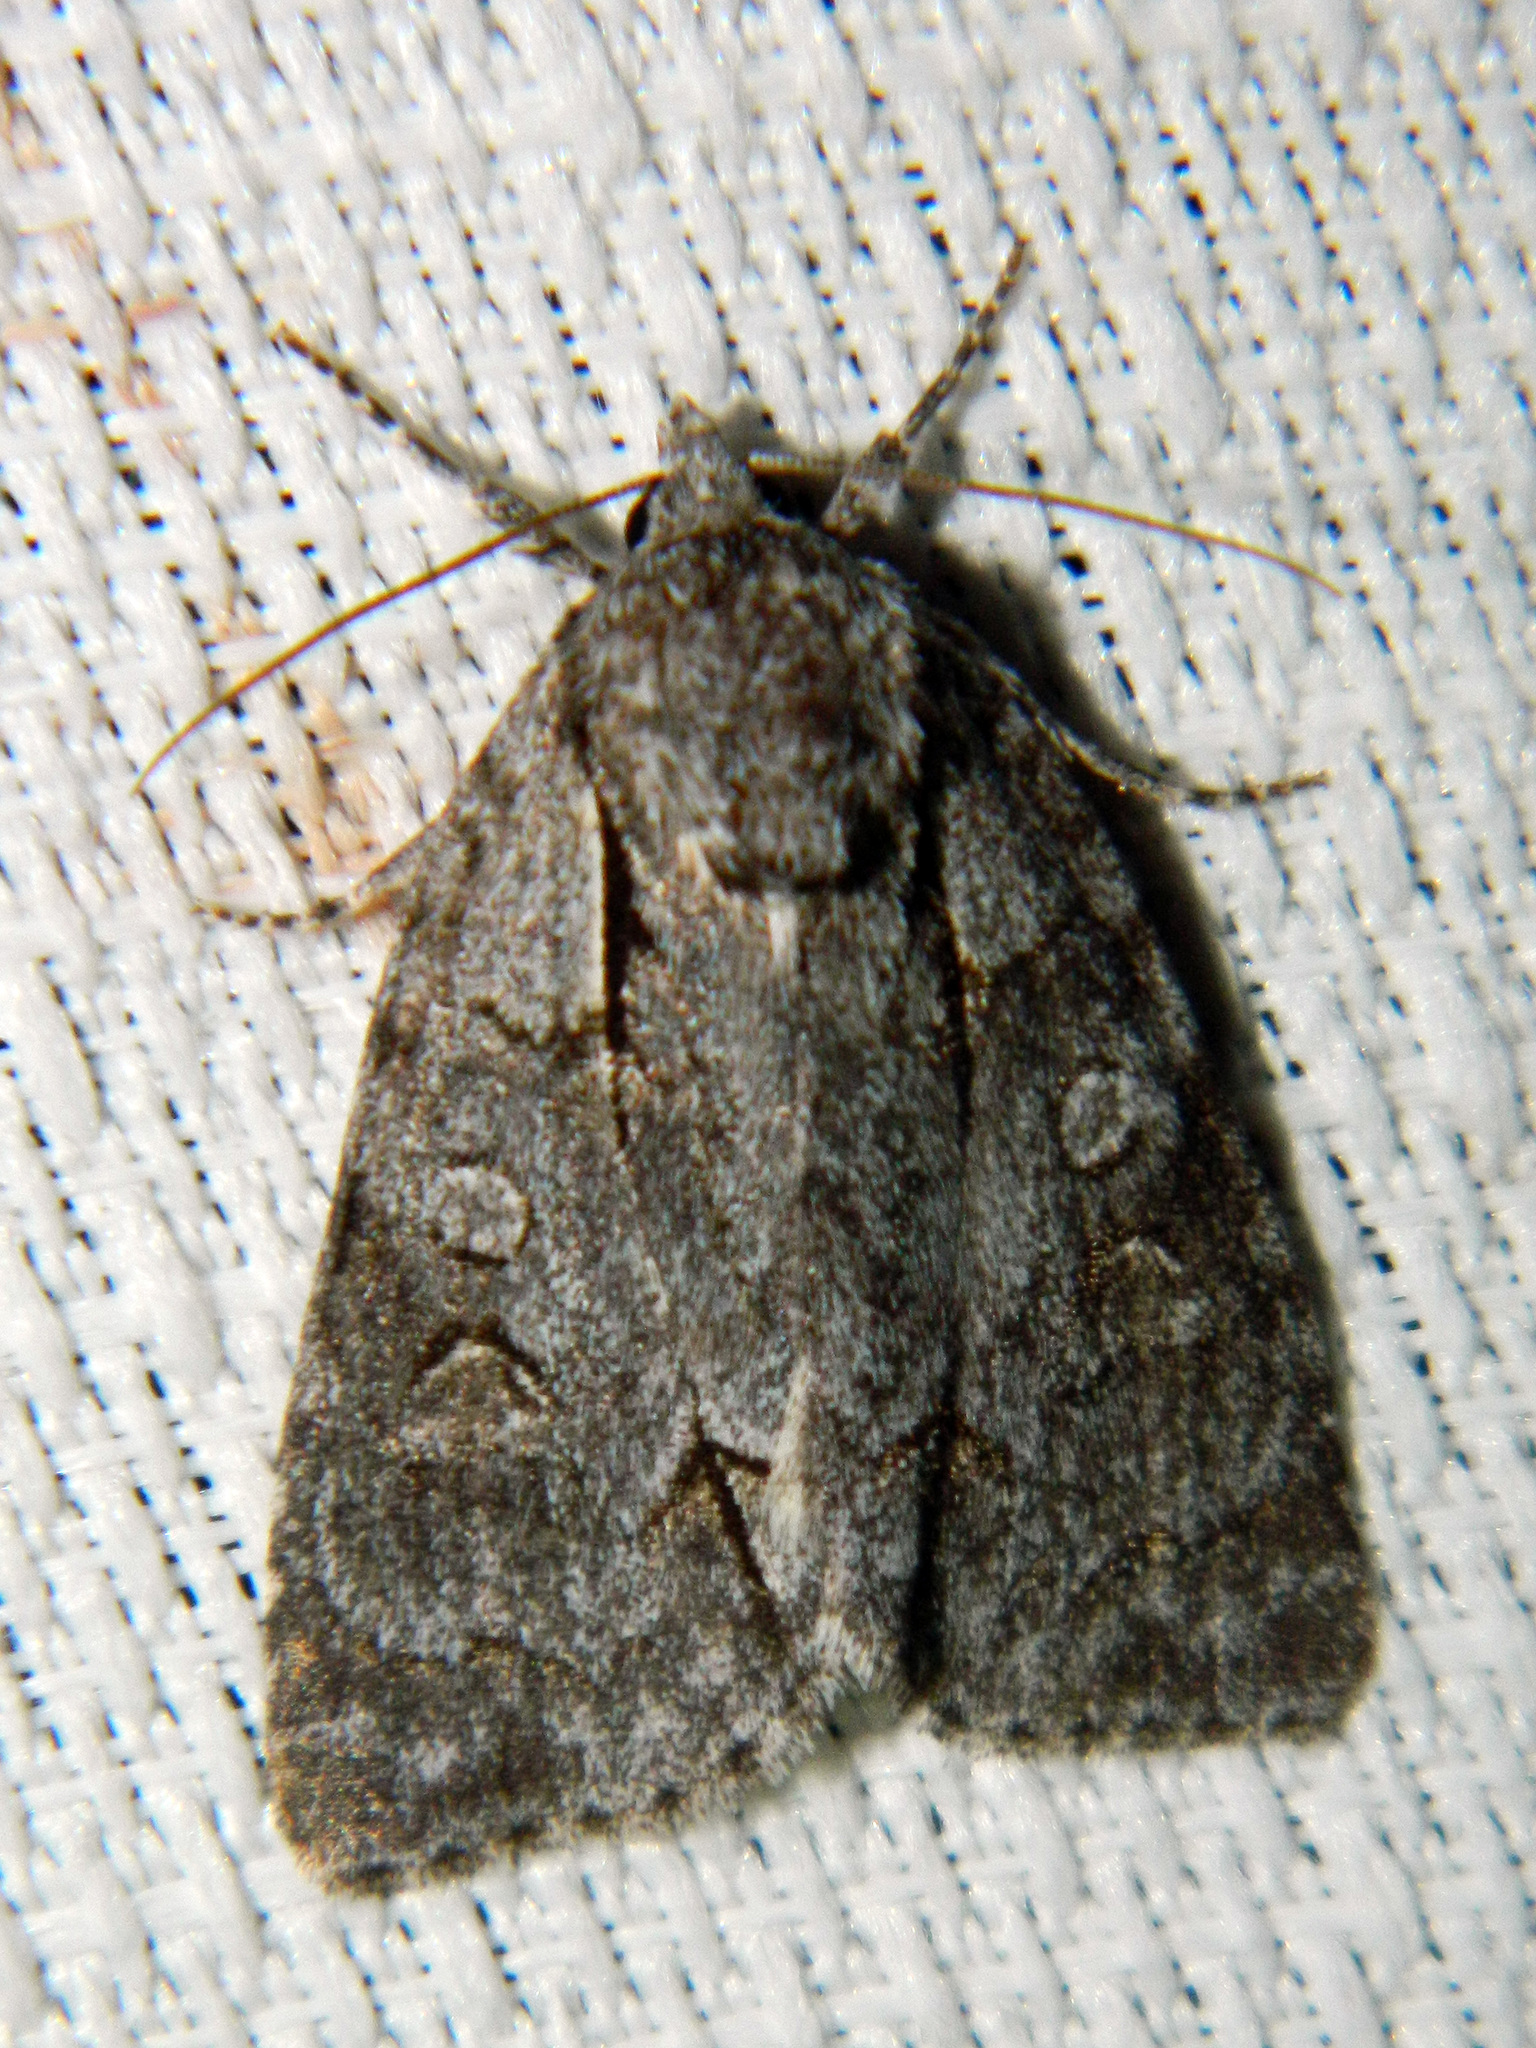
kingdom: Animalia
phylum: Arthropoda
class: Insecta
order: Lepidoptera
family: Noctuidae
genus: Acronicta
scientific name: Acronicta grisea
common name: Gray dagger
